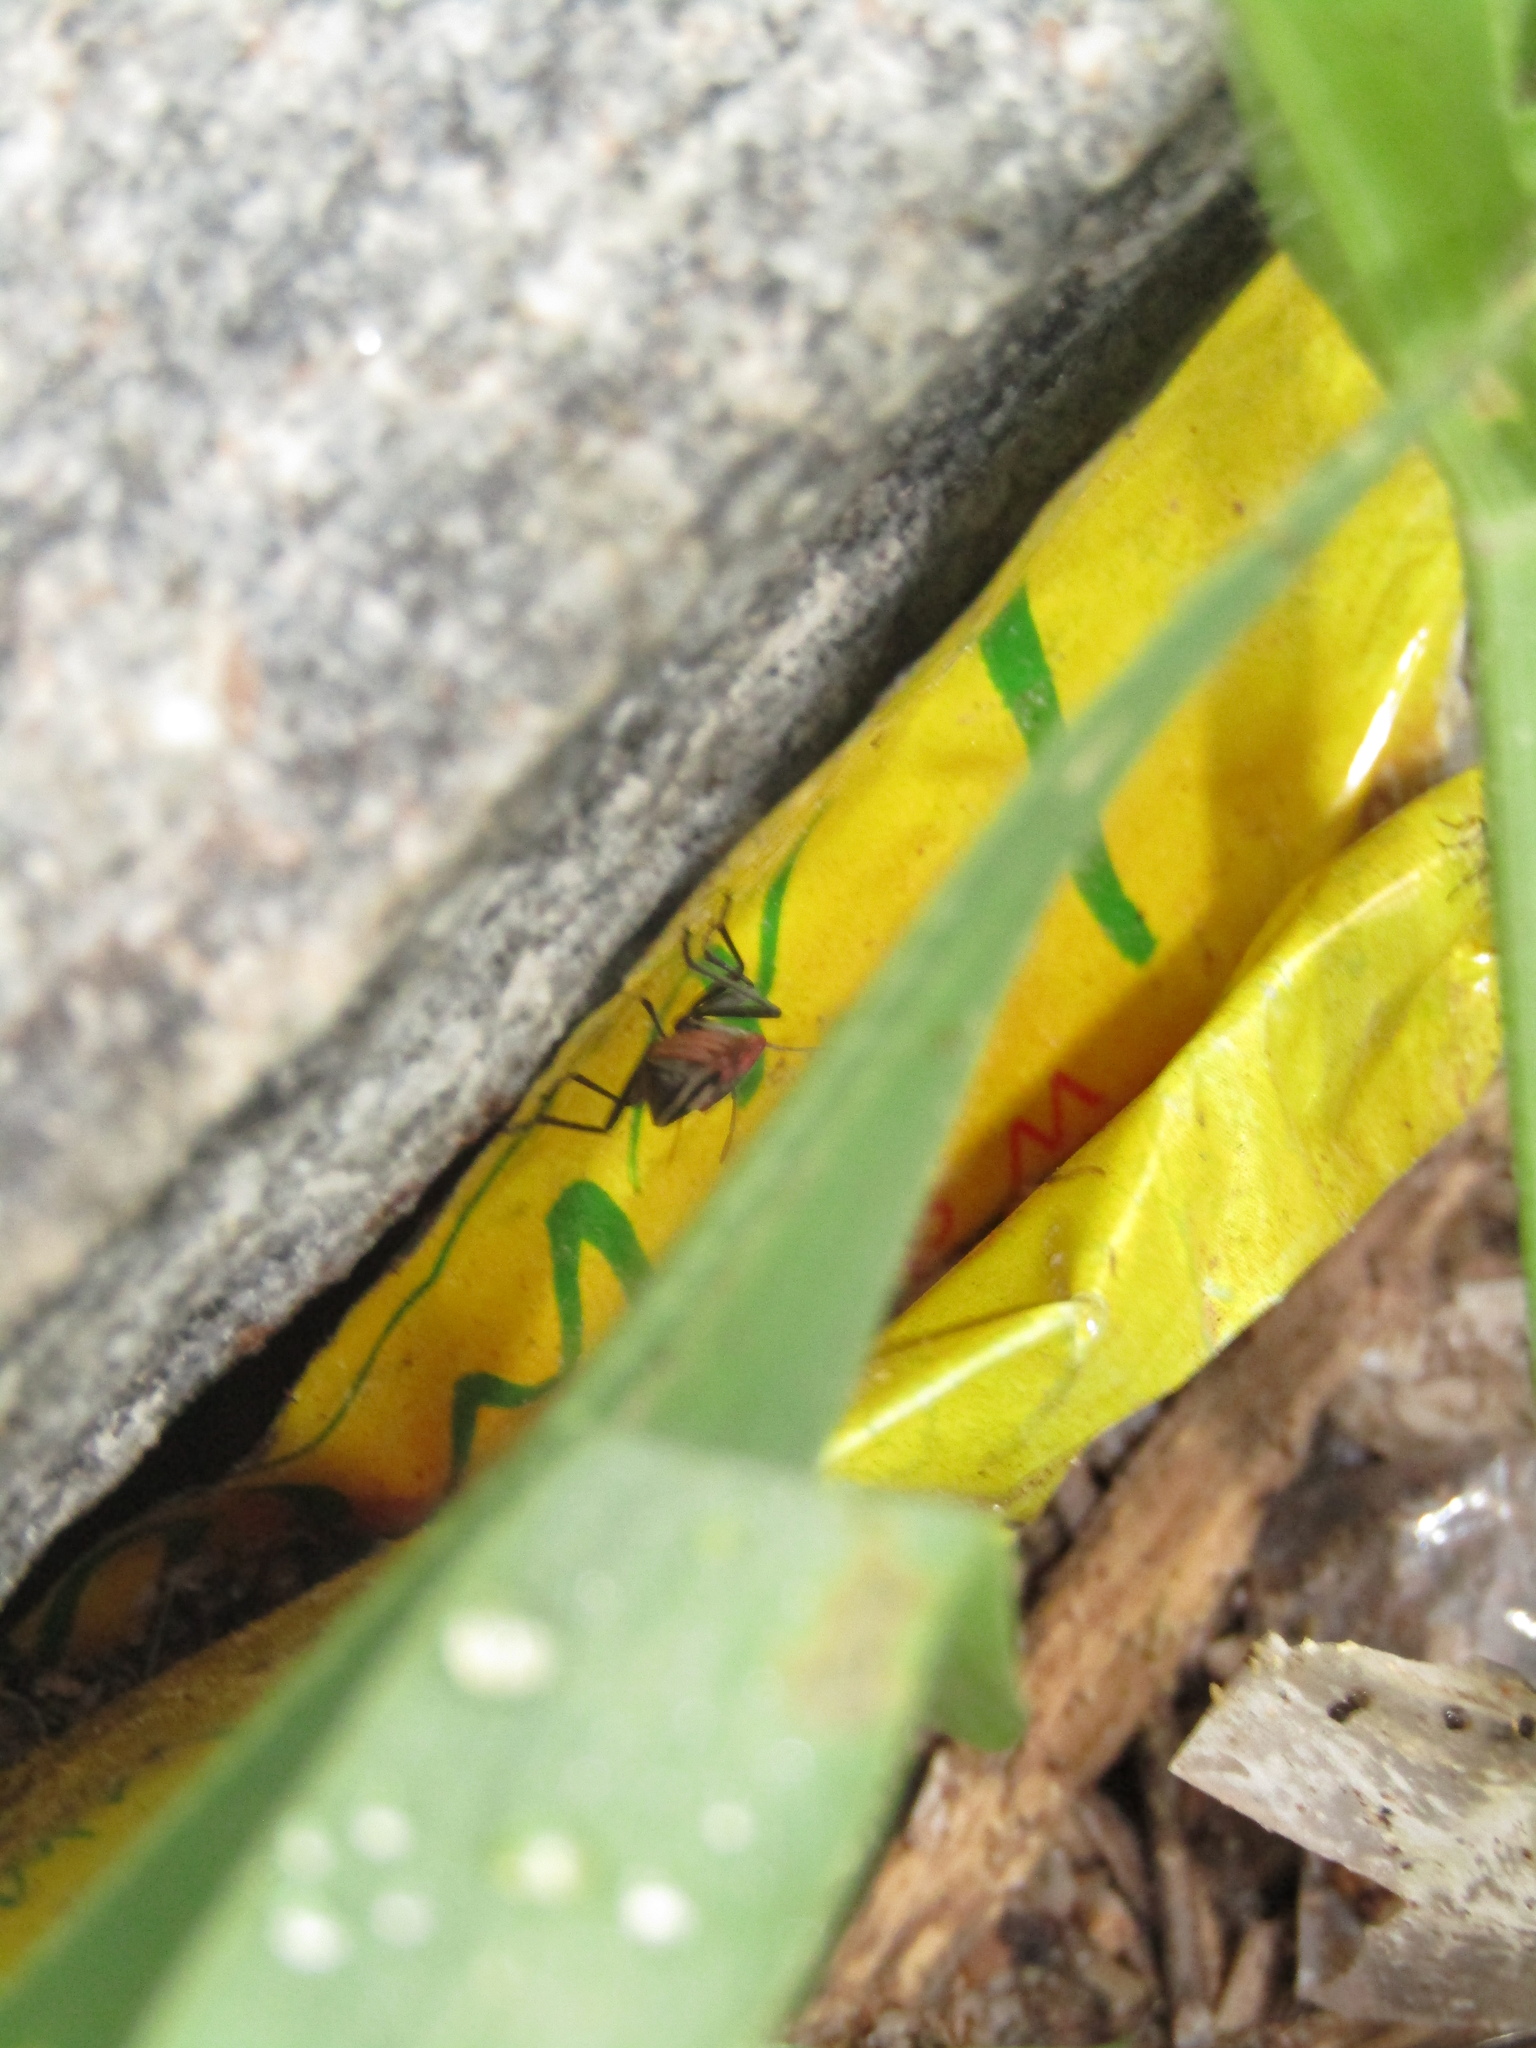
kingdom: Animalia
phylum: Arthropoda
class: Insecta
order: Hemiptera
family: Lygaeidae
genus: Lygaeus
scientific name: Lygaeus alboornatus
